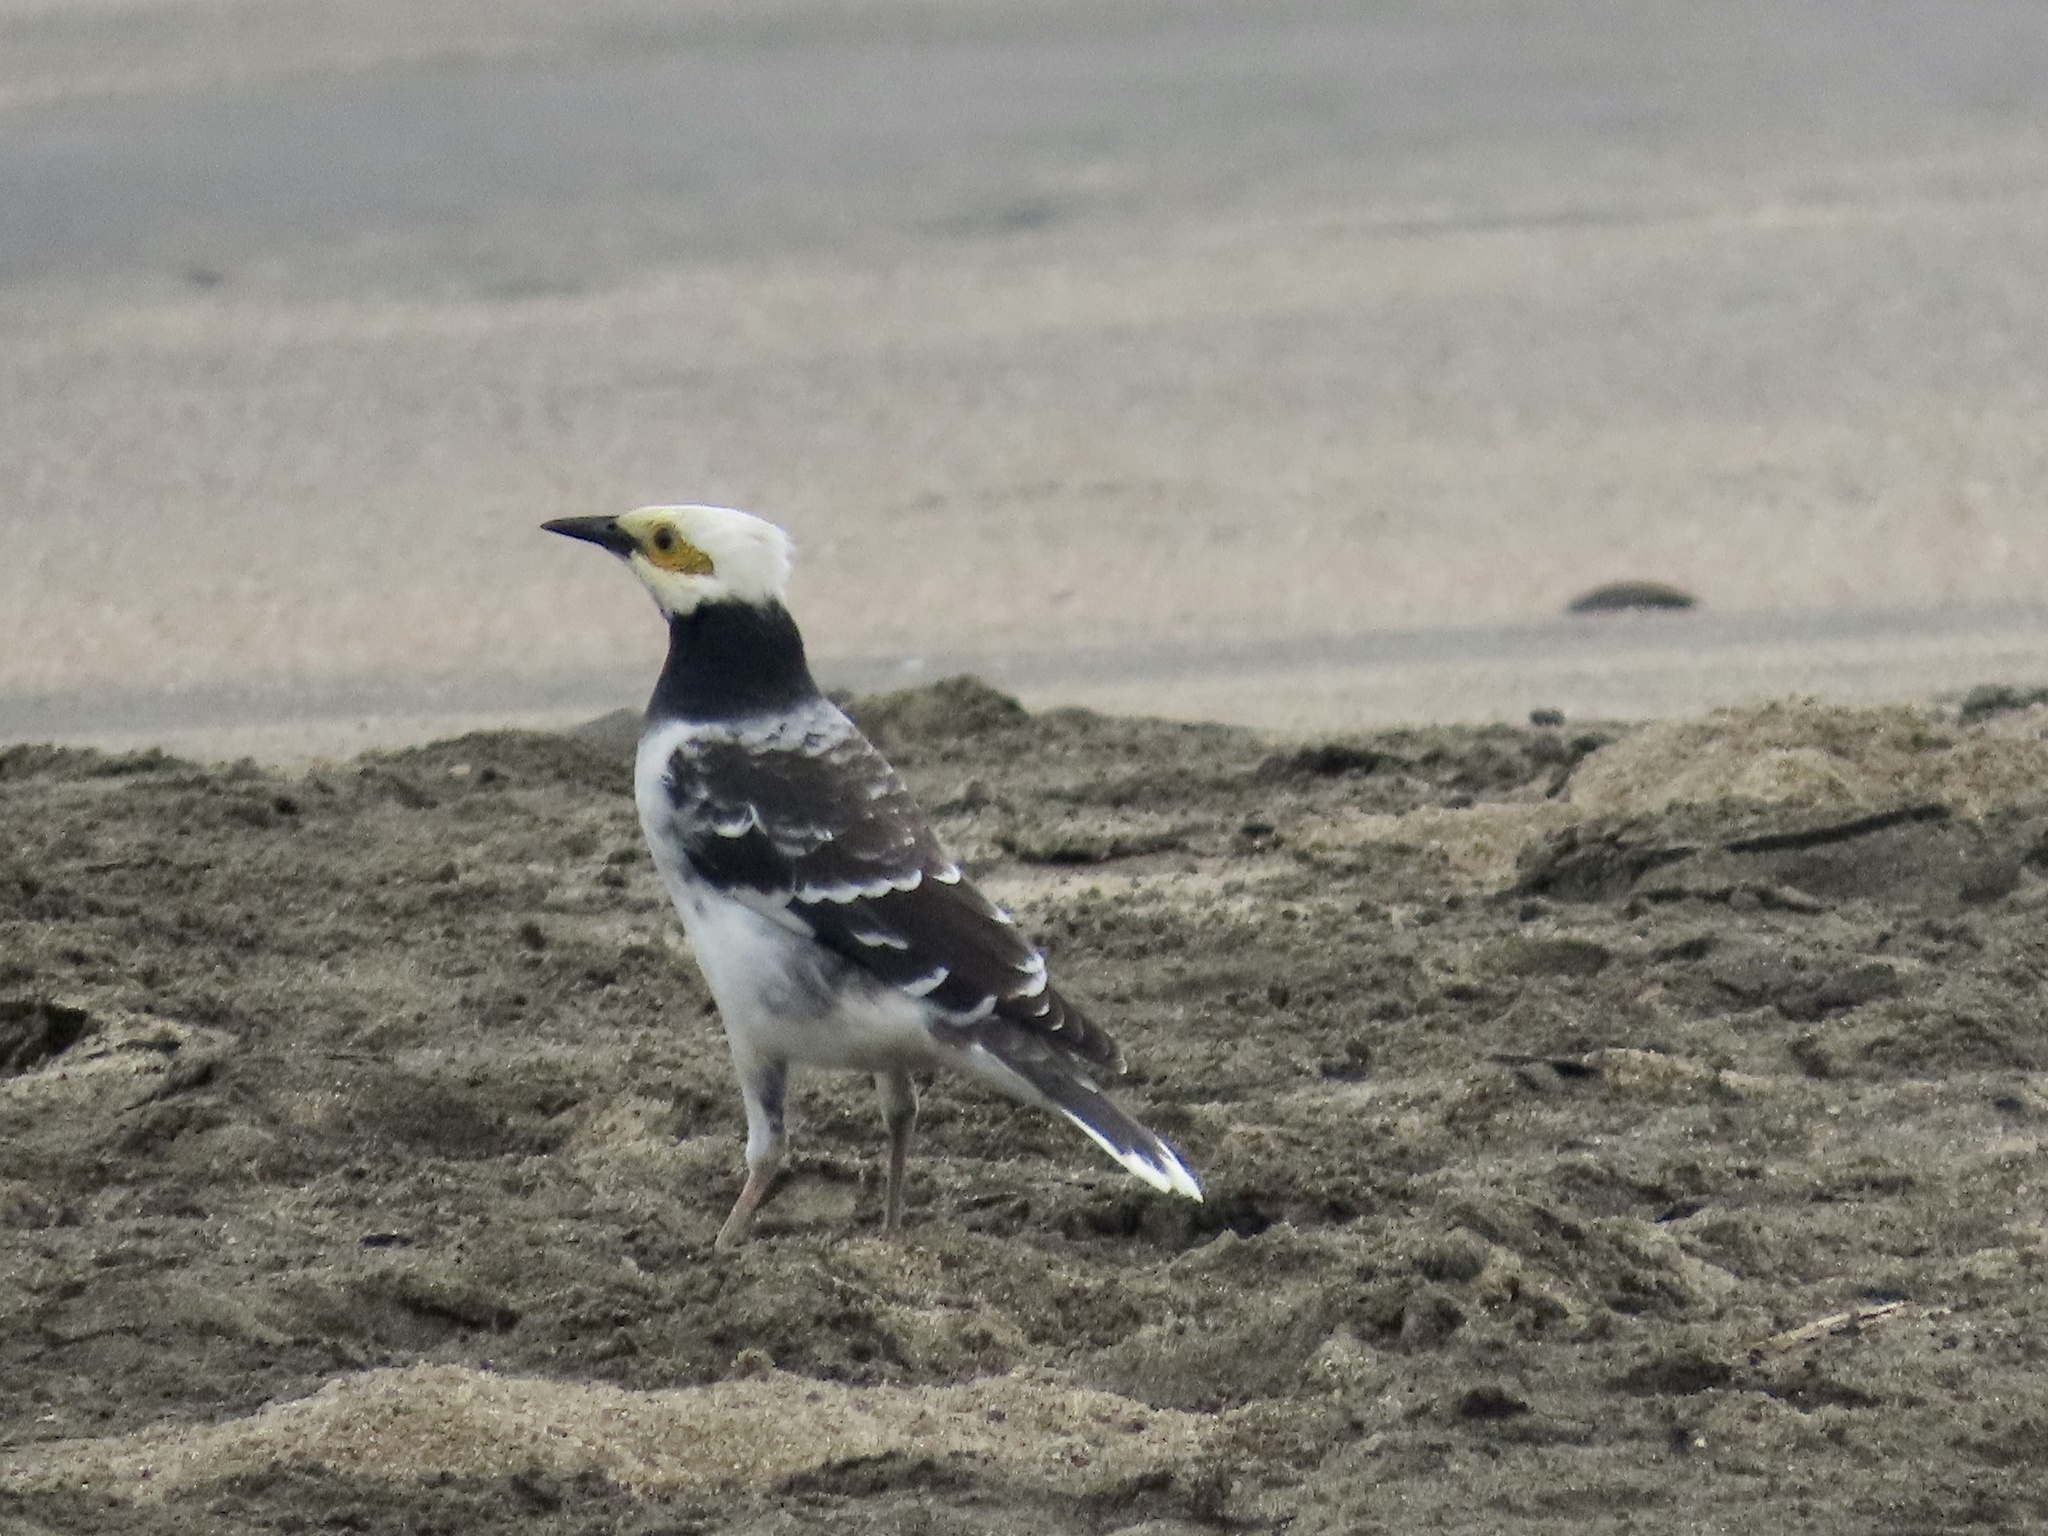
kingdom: Animalia
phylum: Chordata
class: Aves
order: Passeriformes
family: Sturnidae
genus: Gracupica
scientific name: Gracupica nigricollis
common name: Black-collared starling
